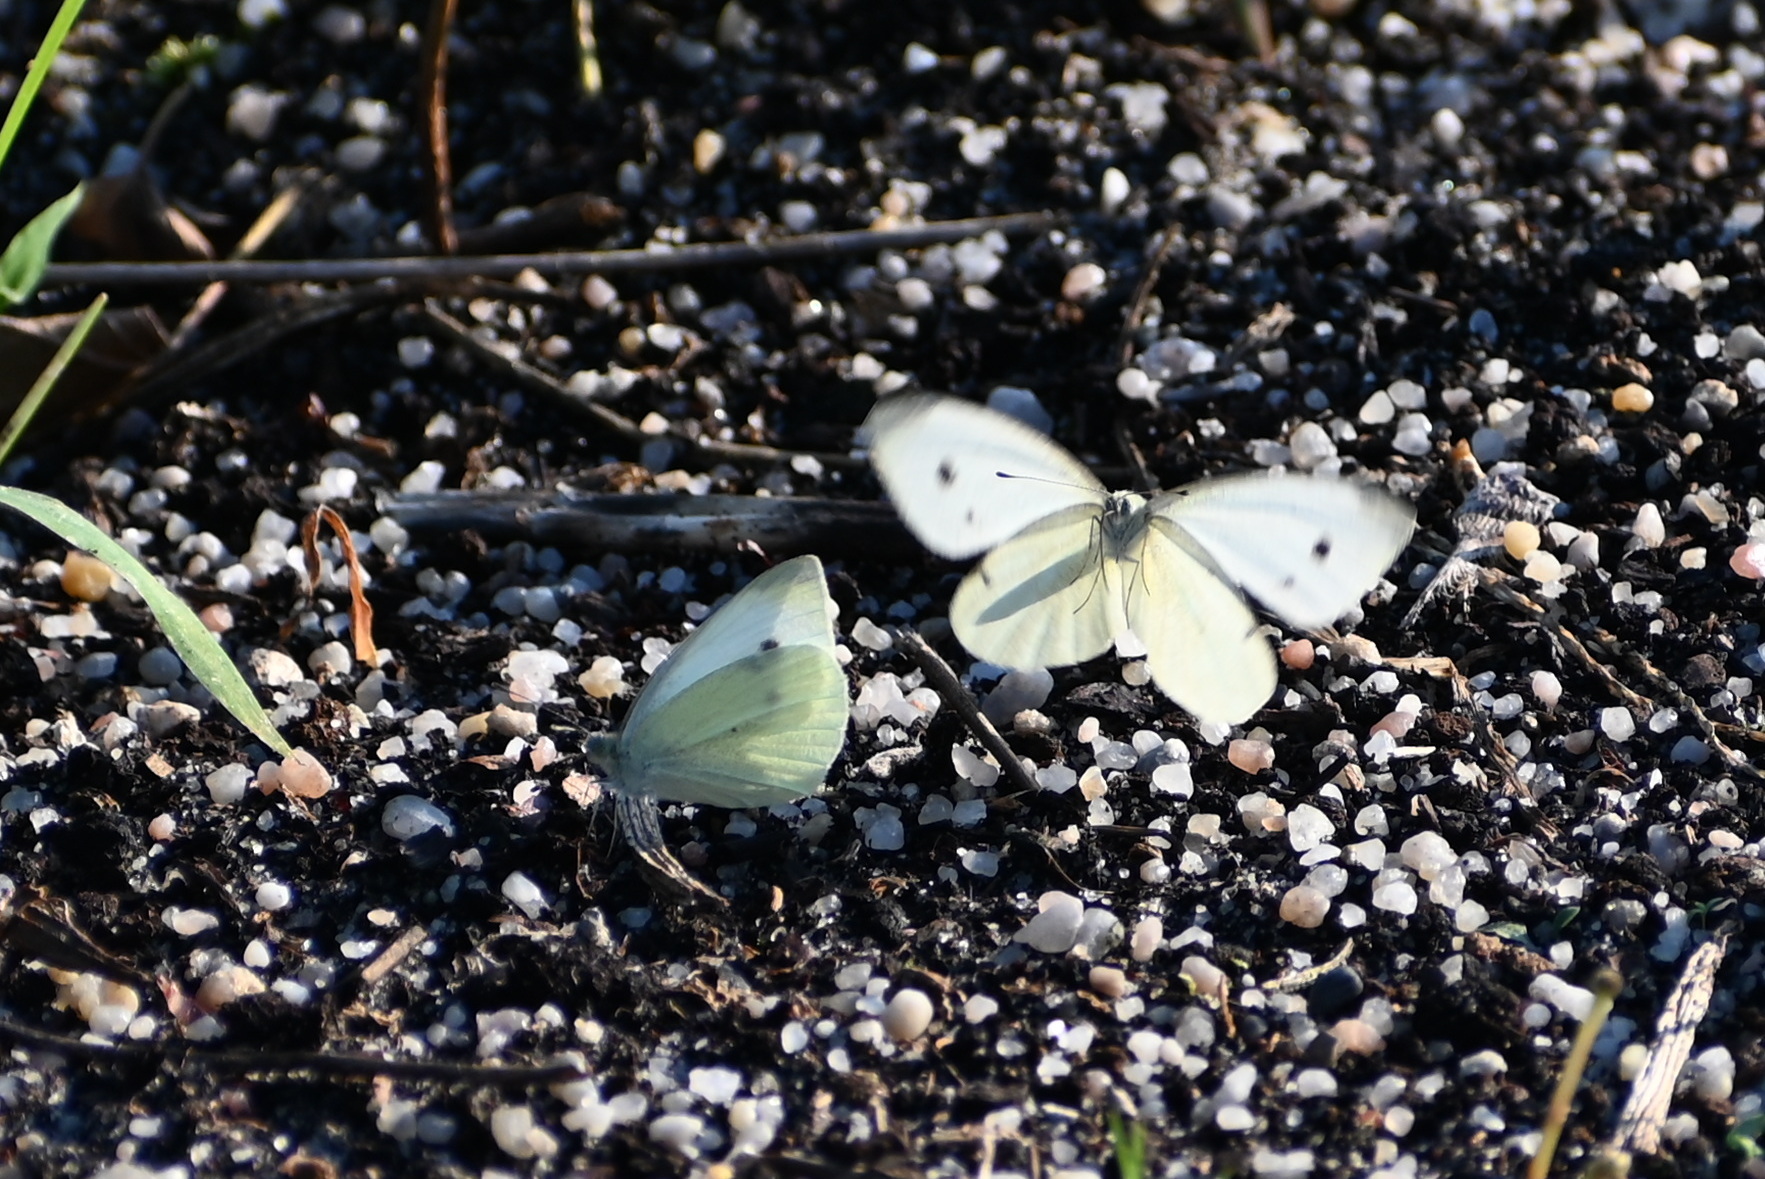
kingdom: Animalia
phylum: Arthropoda
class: Insecta
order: Lepidoptera
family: Pieridae
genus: Pieris
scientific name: Pieris rapae
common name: Small white
